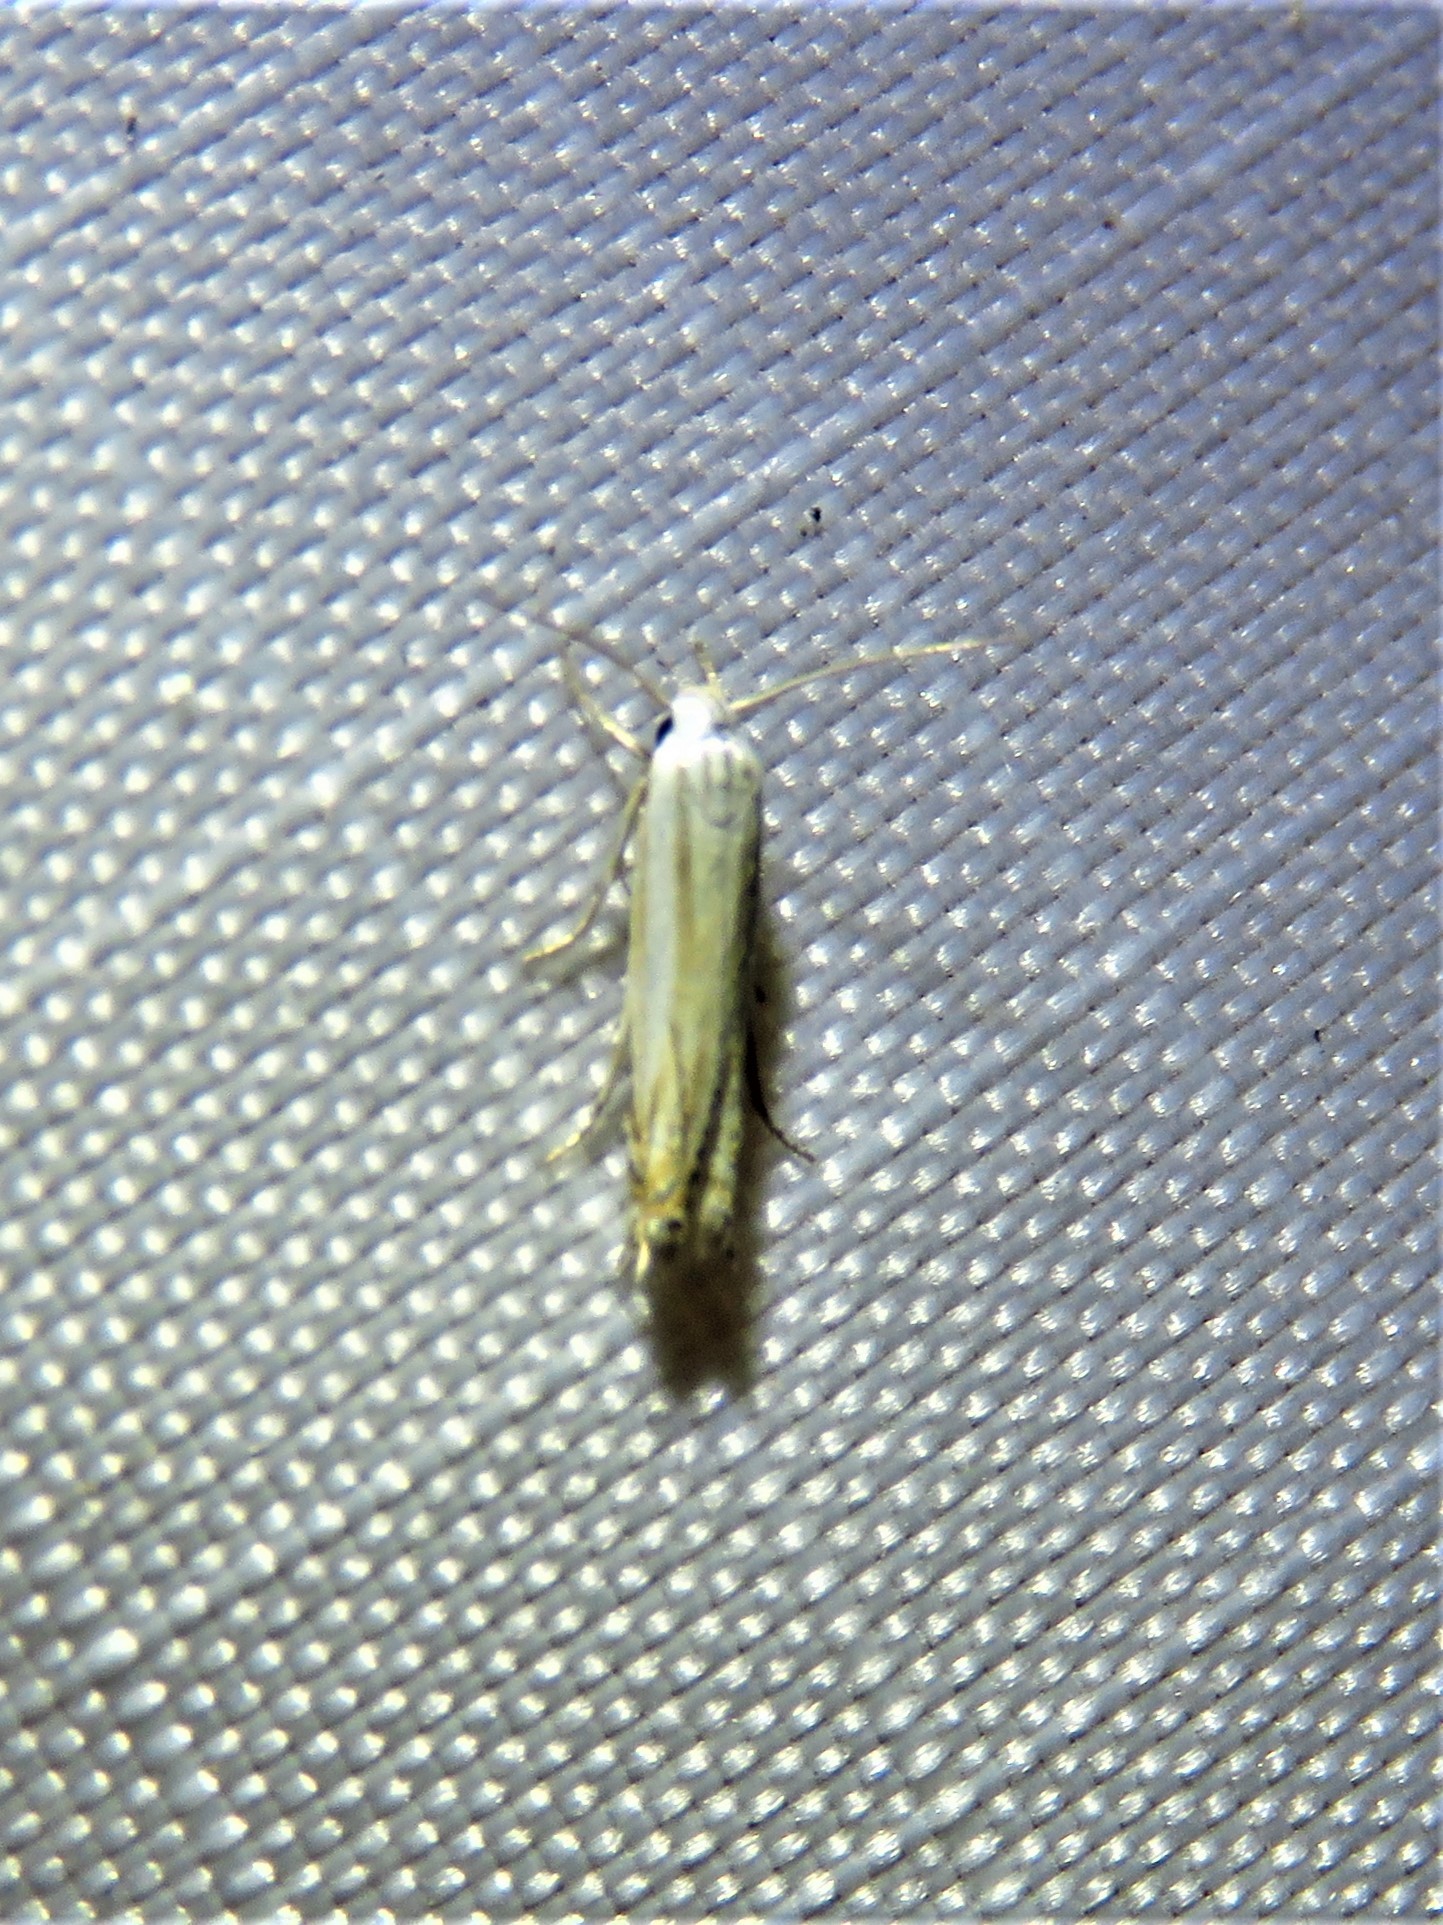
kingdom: Animalia
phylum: Arthropoda
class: Insecta
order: Lepidoptera
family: Gelechiidae
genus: Polyhymno
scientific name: Polyhymno luteostrigella
